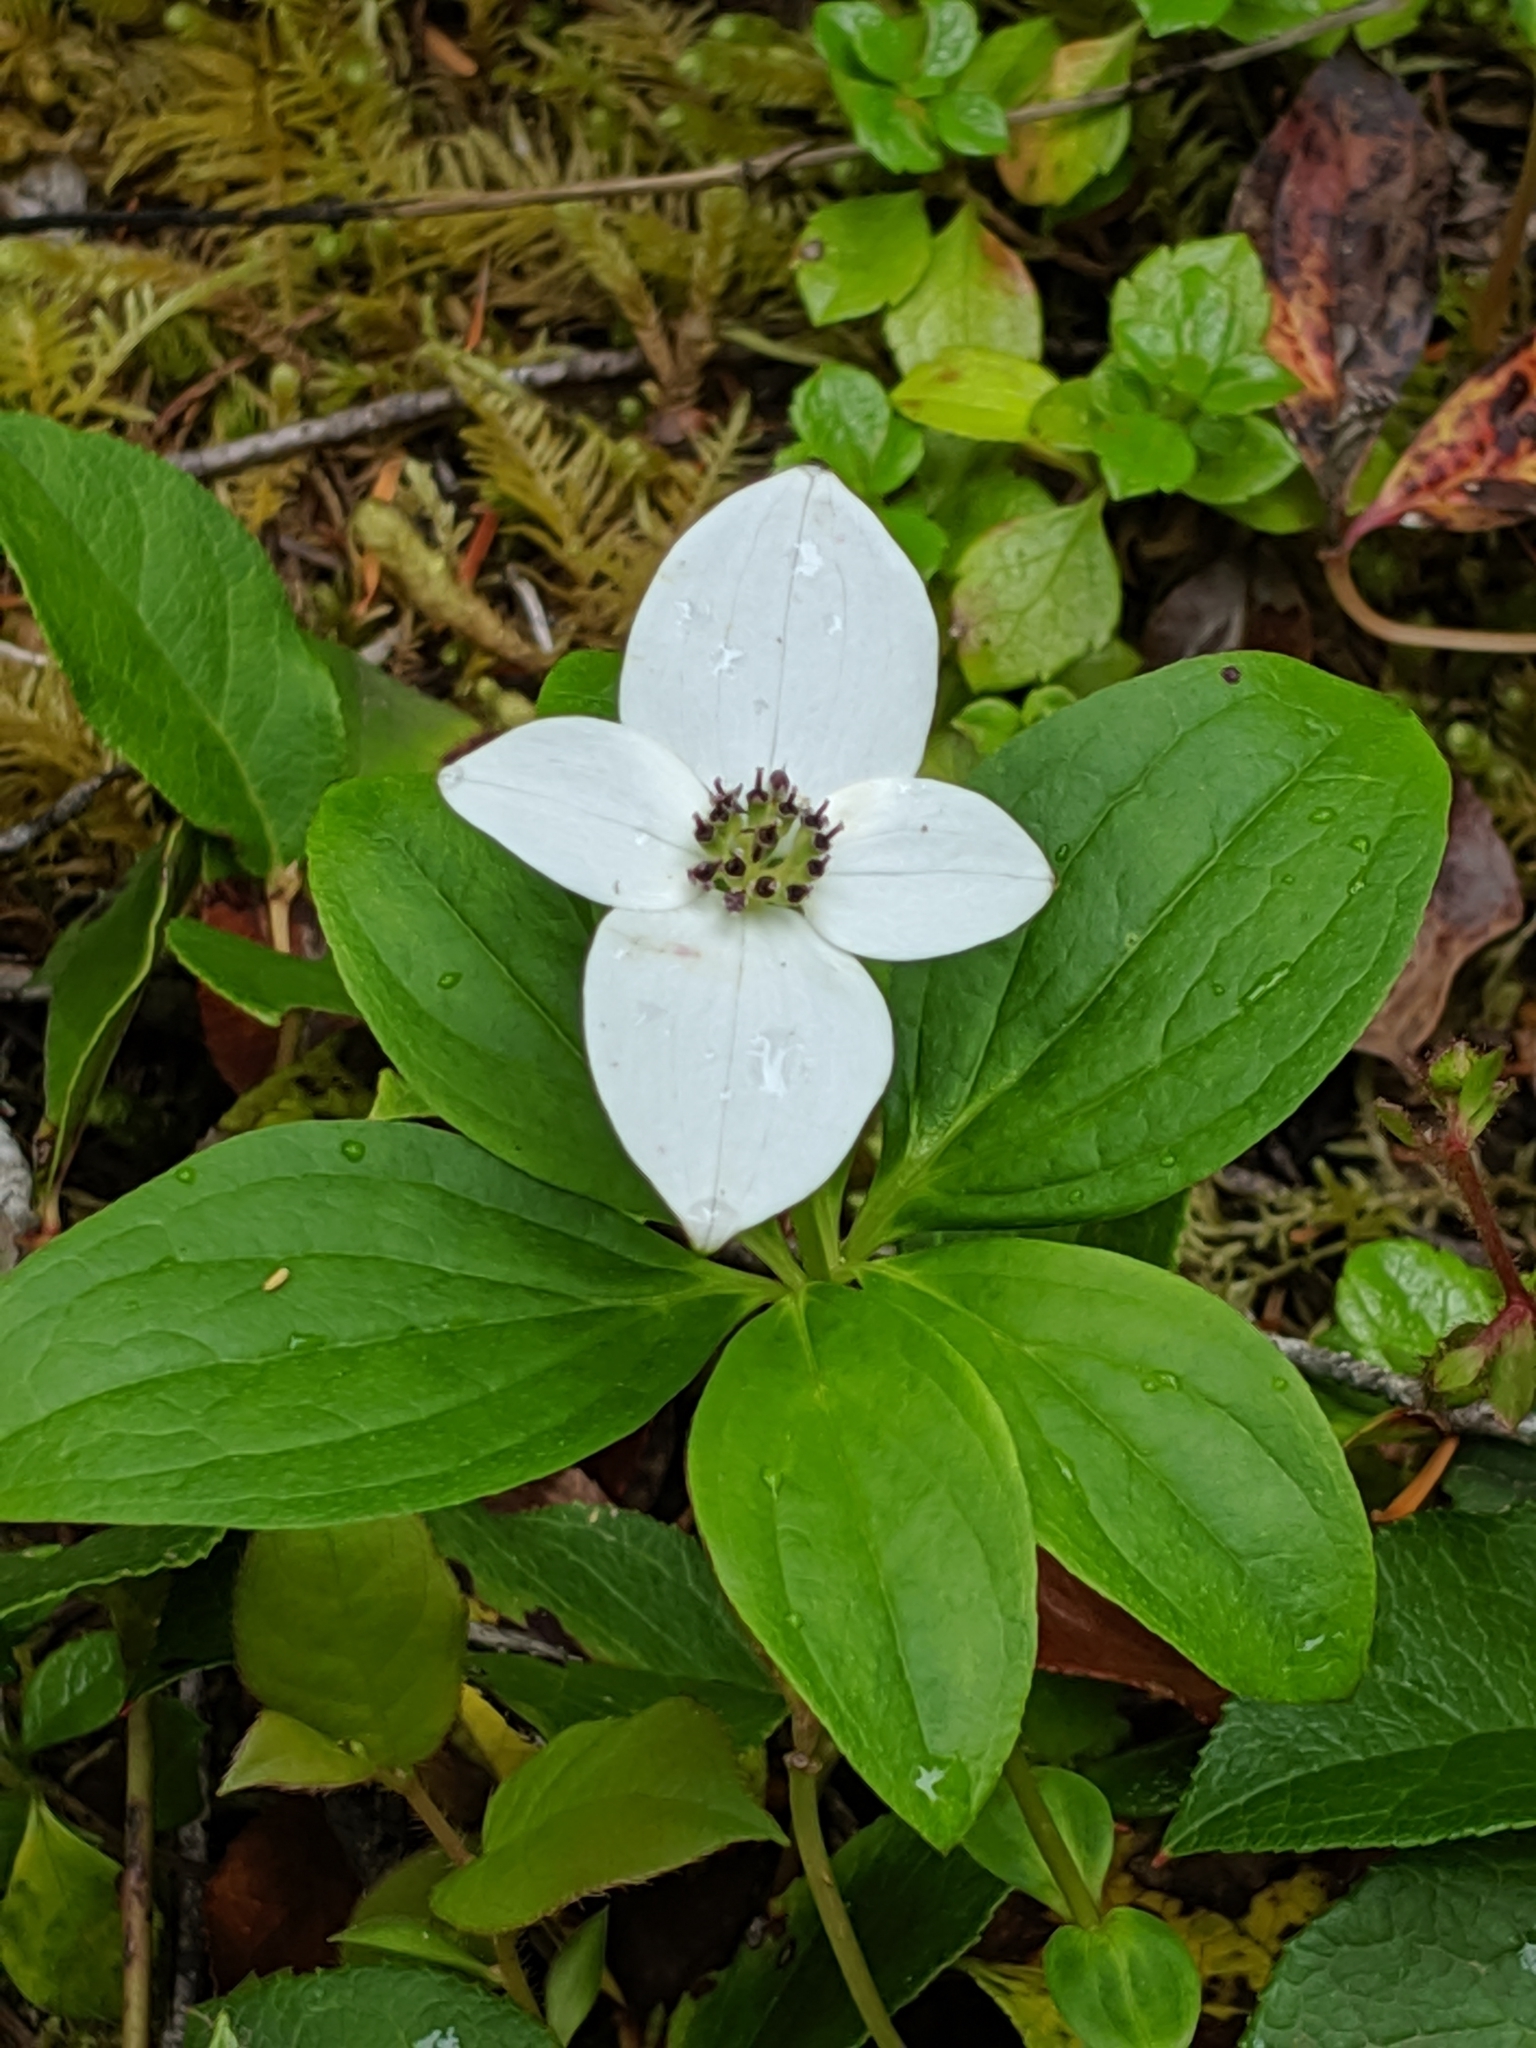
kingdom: Plantae
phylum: Tracheophyta
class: Magnoliopsida
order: Cornales
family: Cornaceae
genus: Cornus
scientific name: Cornus unalaschkensis
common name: Alaska bunchberry
